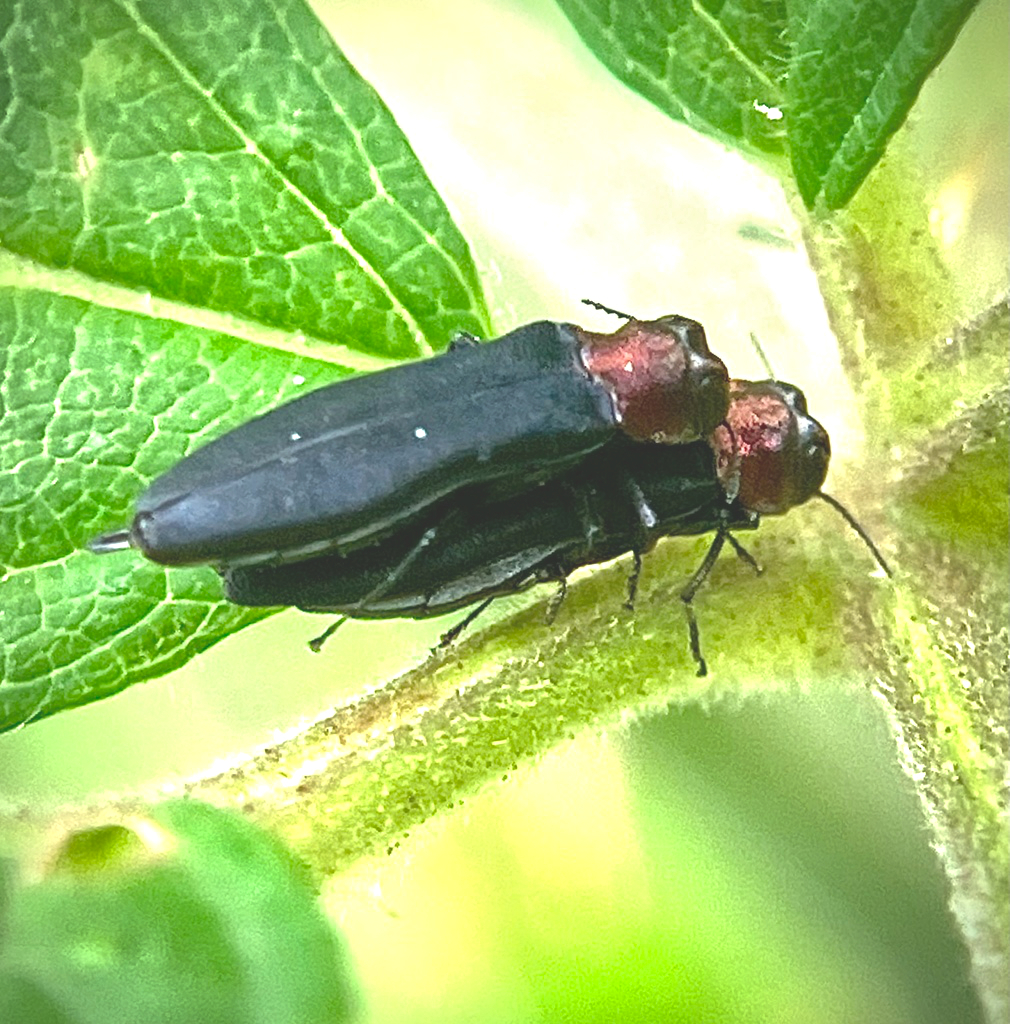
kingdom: Animalia
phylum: Arthropoda
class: Insecta
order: Coleoptera
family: Buprestidae
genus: Agrilus
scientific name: Agrilus ruficollis
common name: Red-necked cane borer beetle
